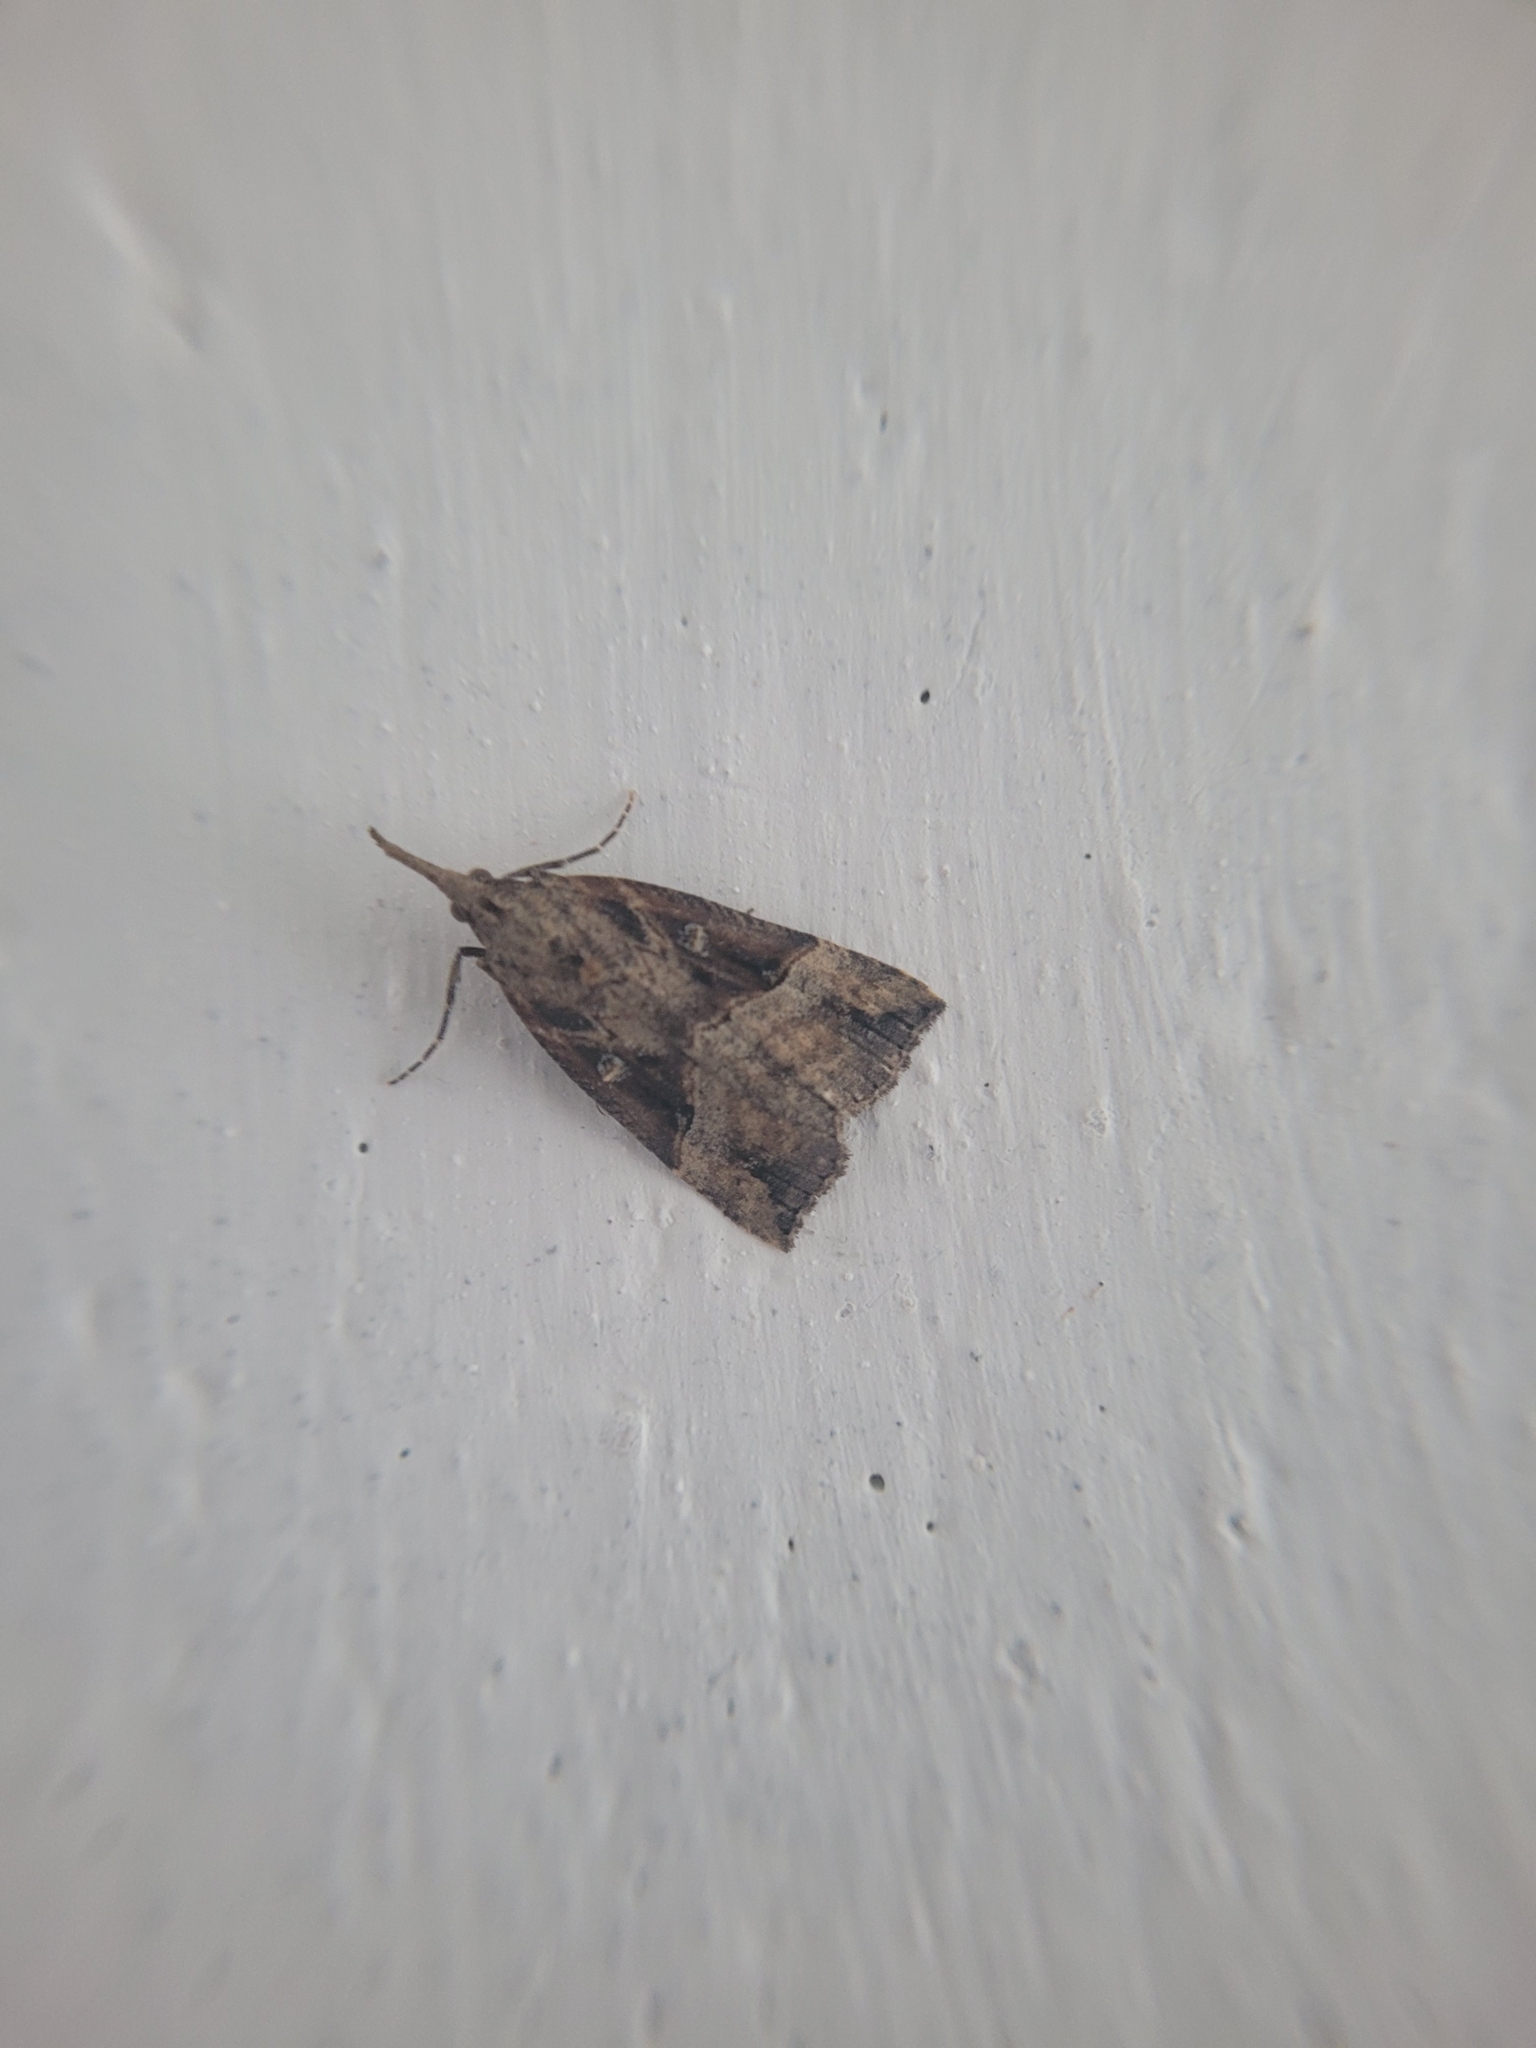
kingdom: Animalia
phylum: Arthropoda
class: Insecta
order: Lepidoptera
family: Erebidae
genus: Hypena
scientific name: Hypena rostralis
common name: Buttoned snout
